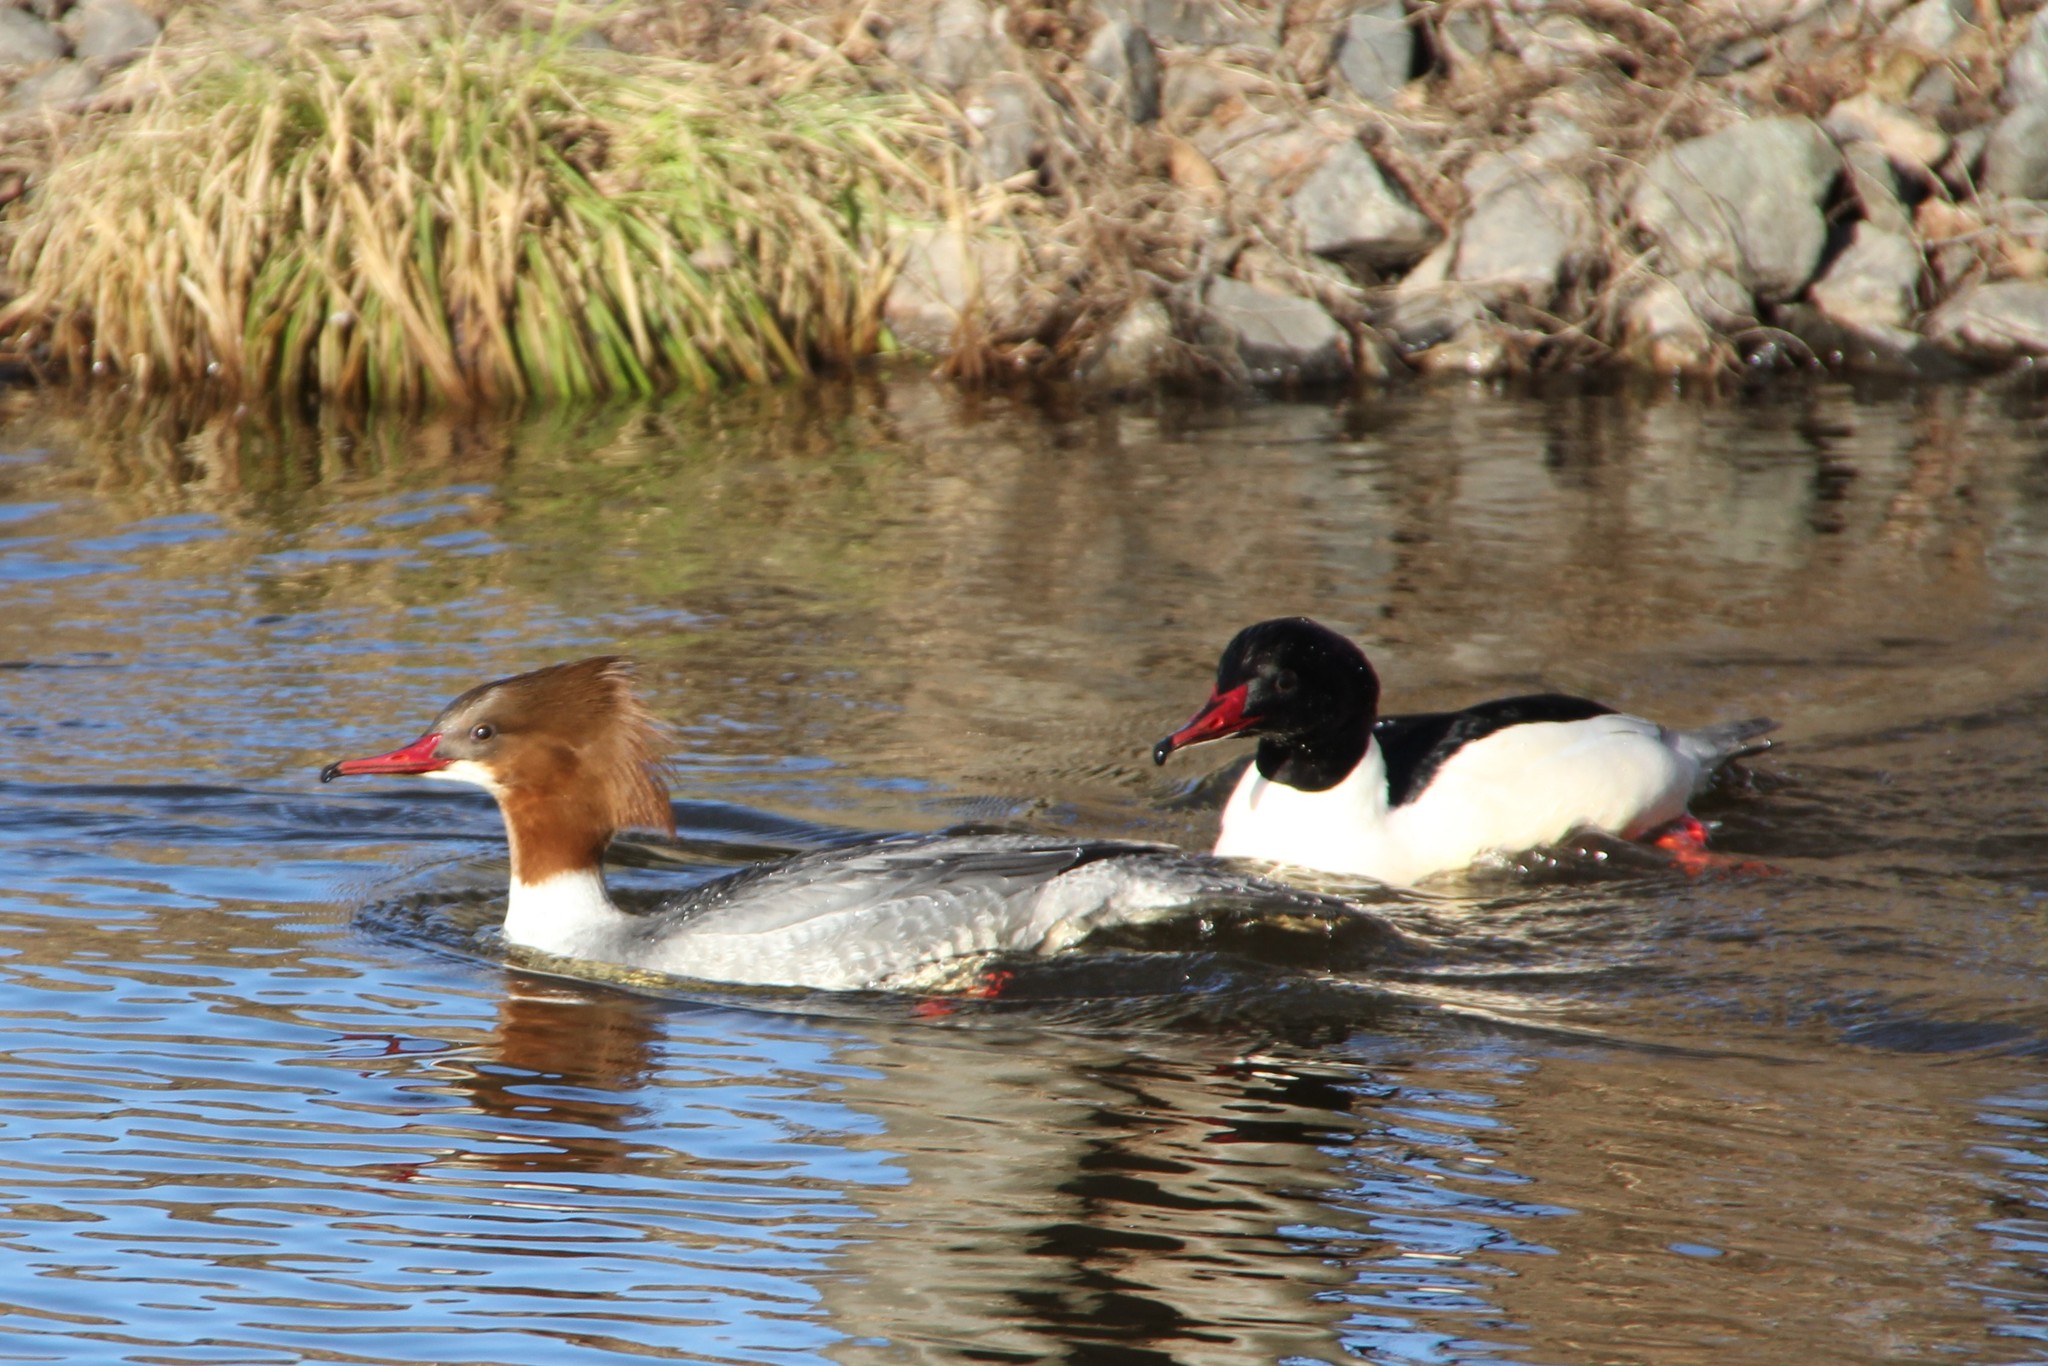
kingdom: Animalia
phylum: Chordata
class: Aves
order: Anseriformes
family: Anatidae
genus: Mergus
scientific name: Mergus merganser
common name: Common merganser
